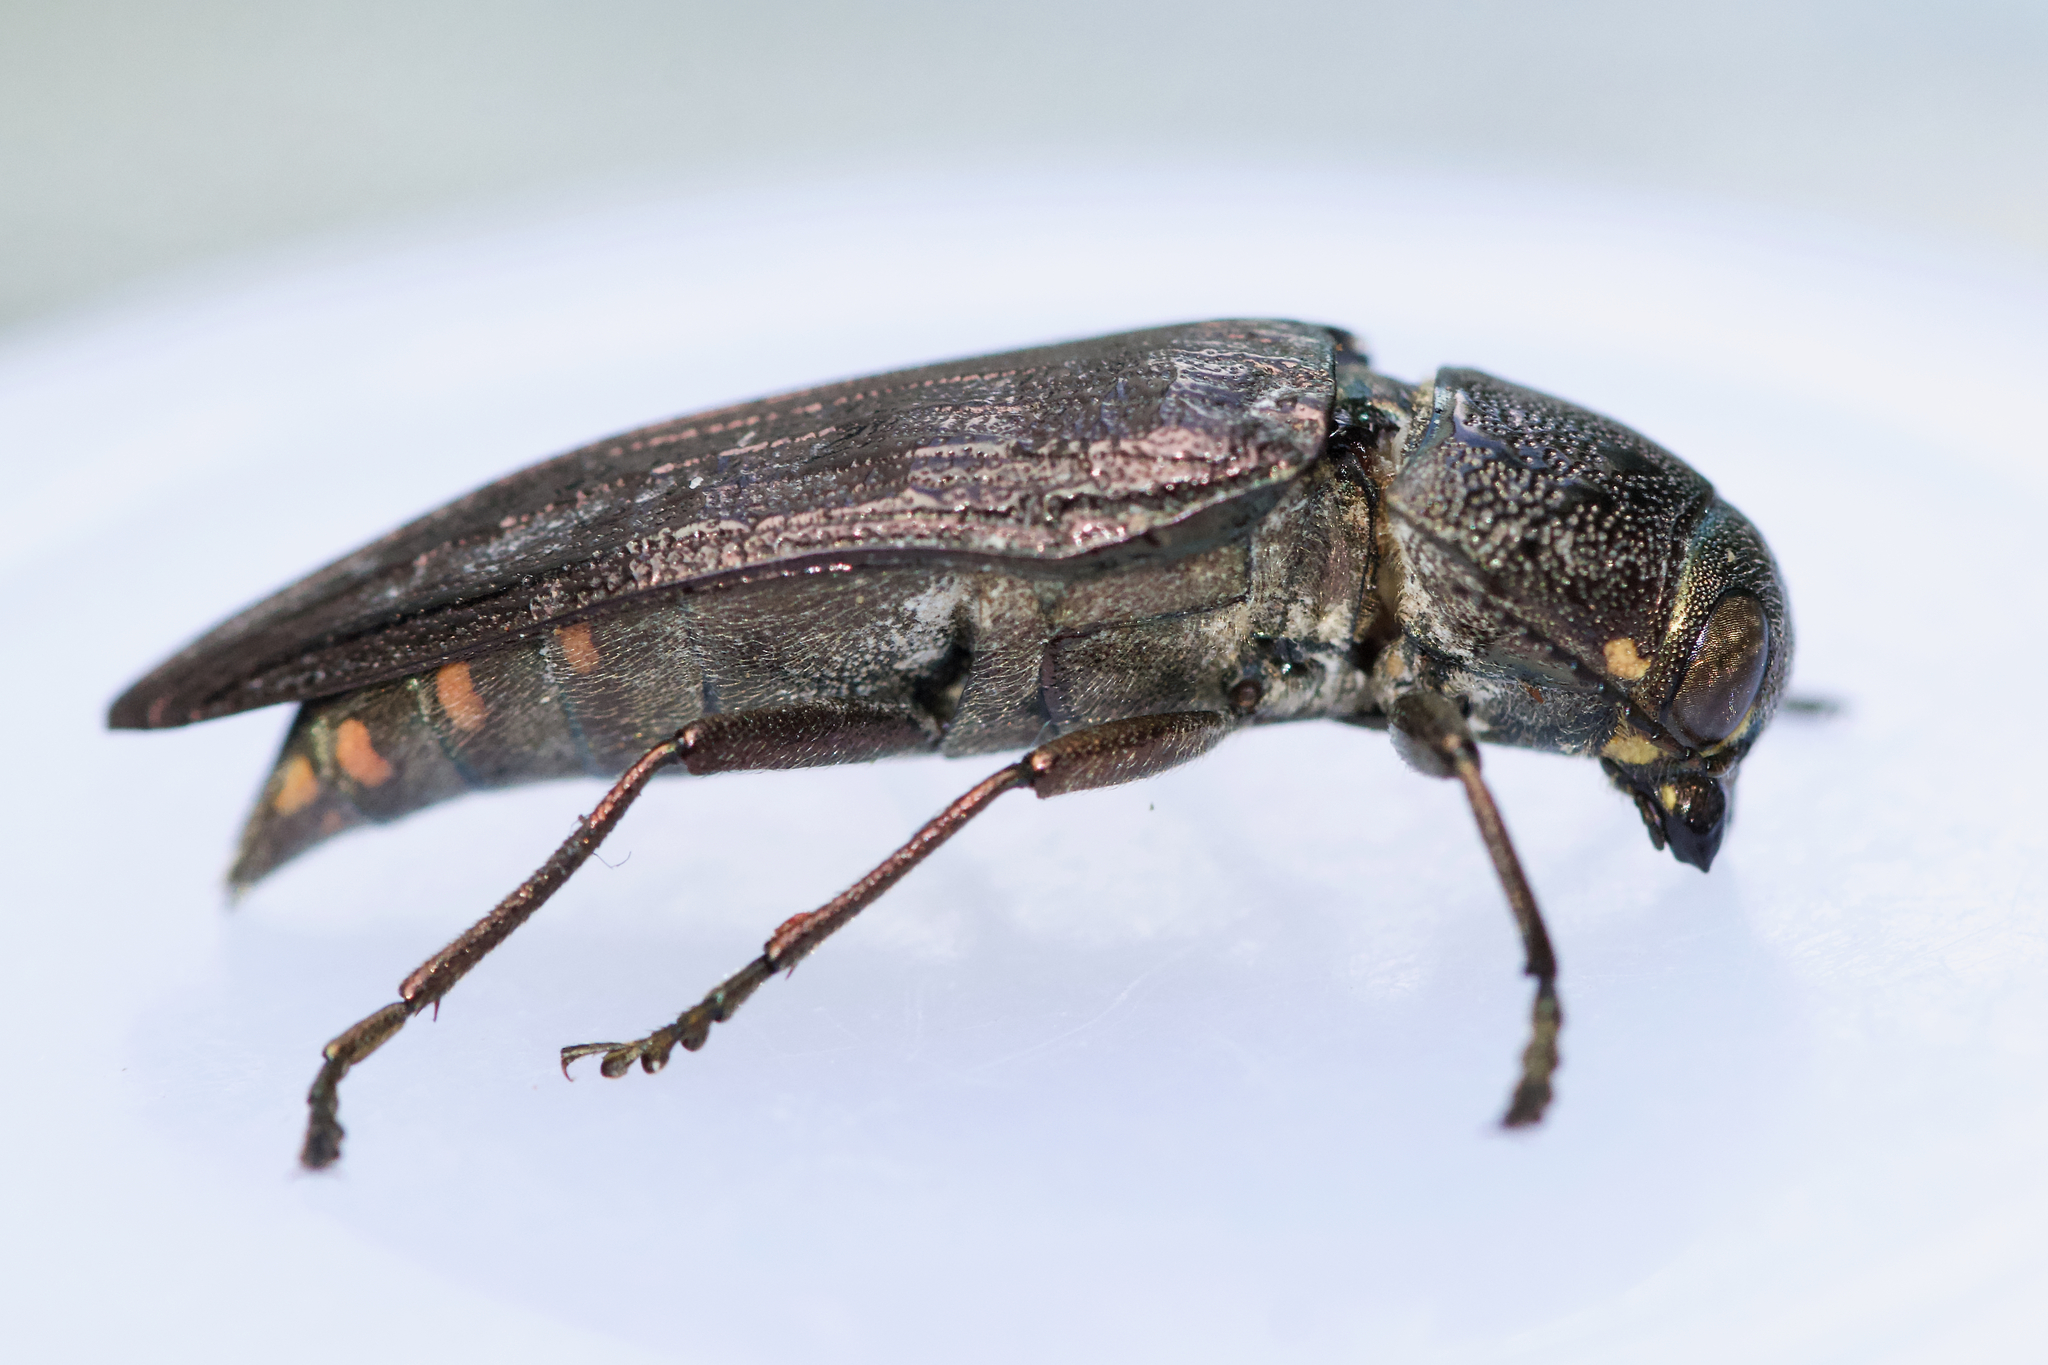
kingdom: Animalia
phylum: Arthropoda
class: Insecta
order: Coleoptera
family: Buprestidae
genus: Buprestis
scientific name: Buprestis maculativentris
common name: Spotted-belly buprestid beetle
